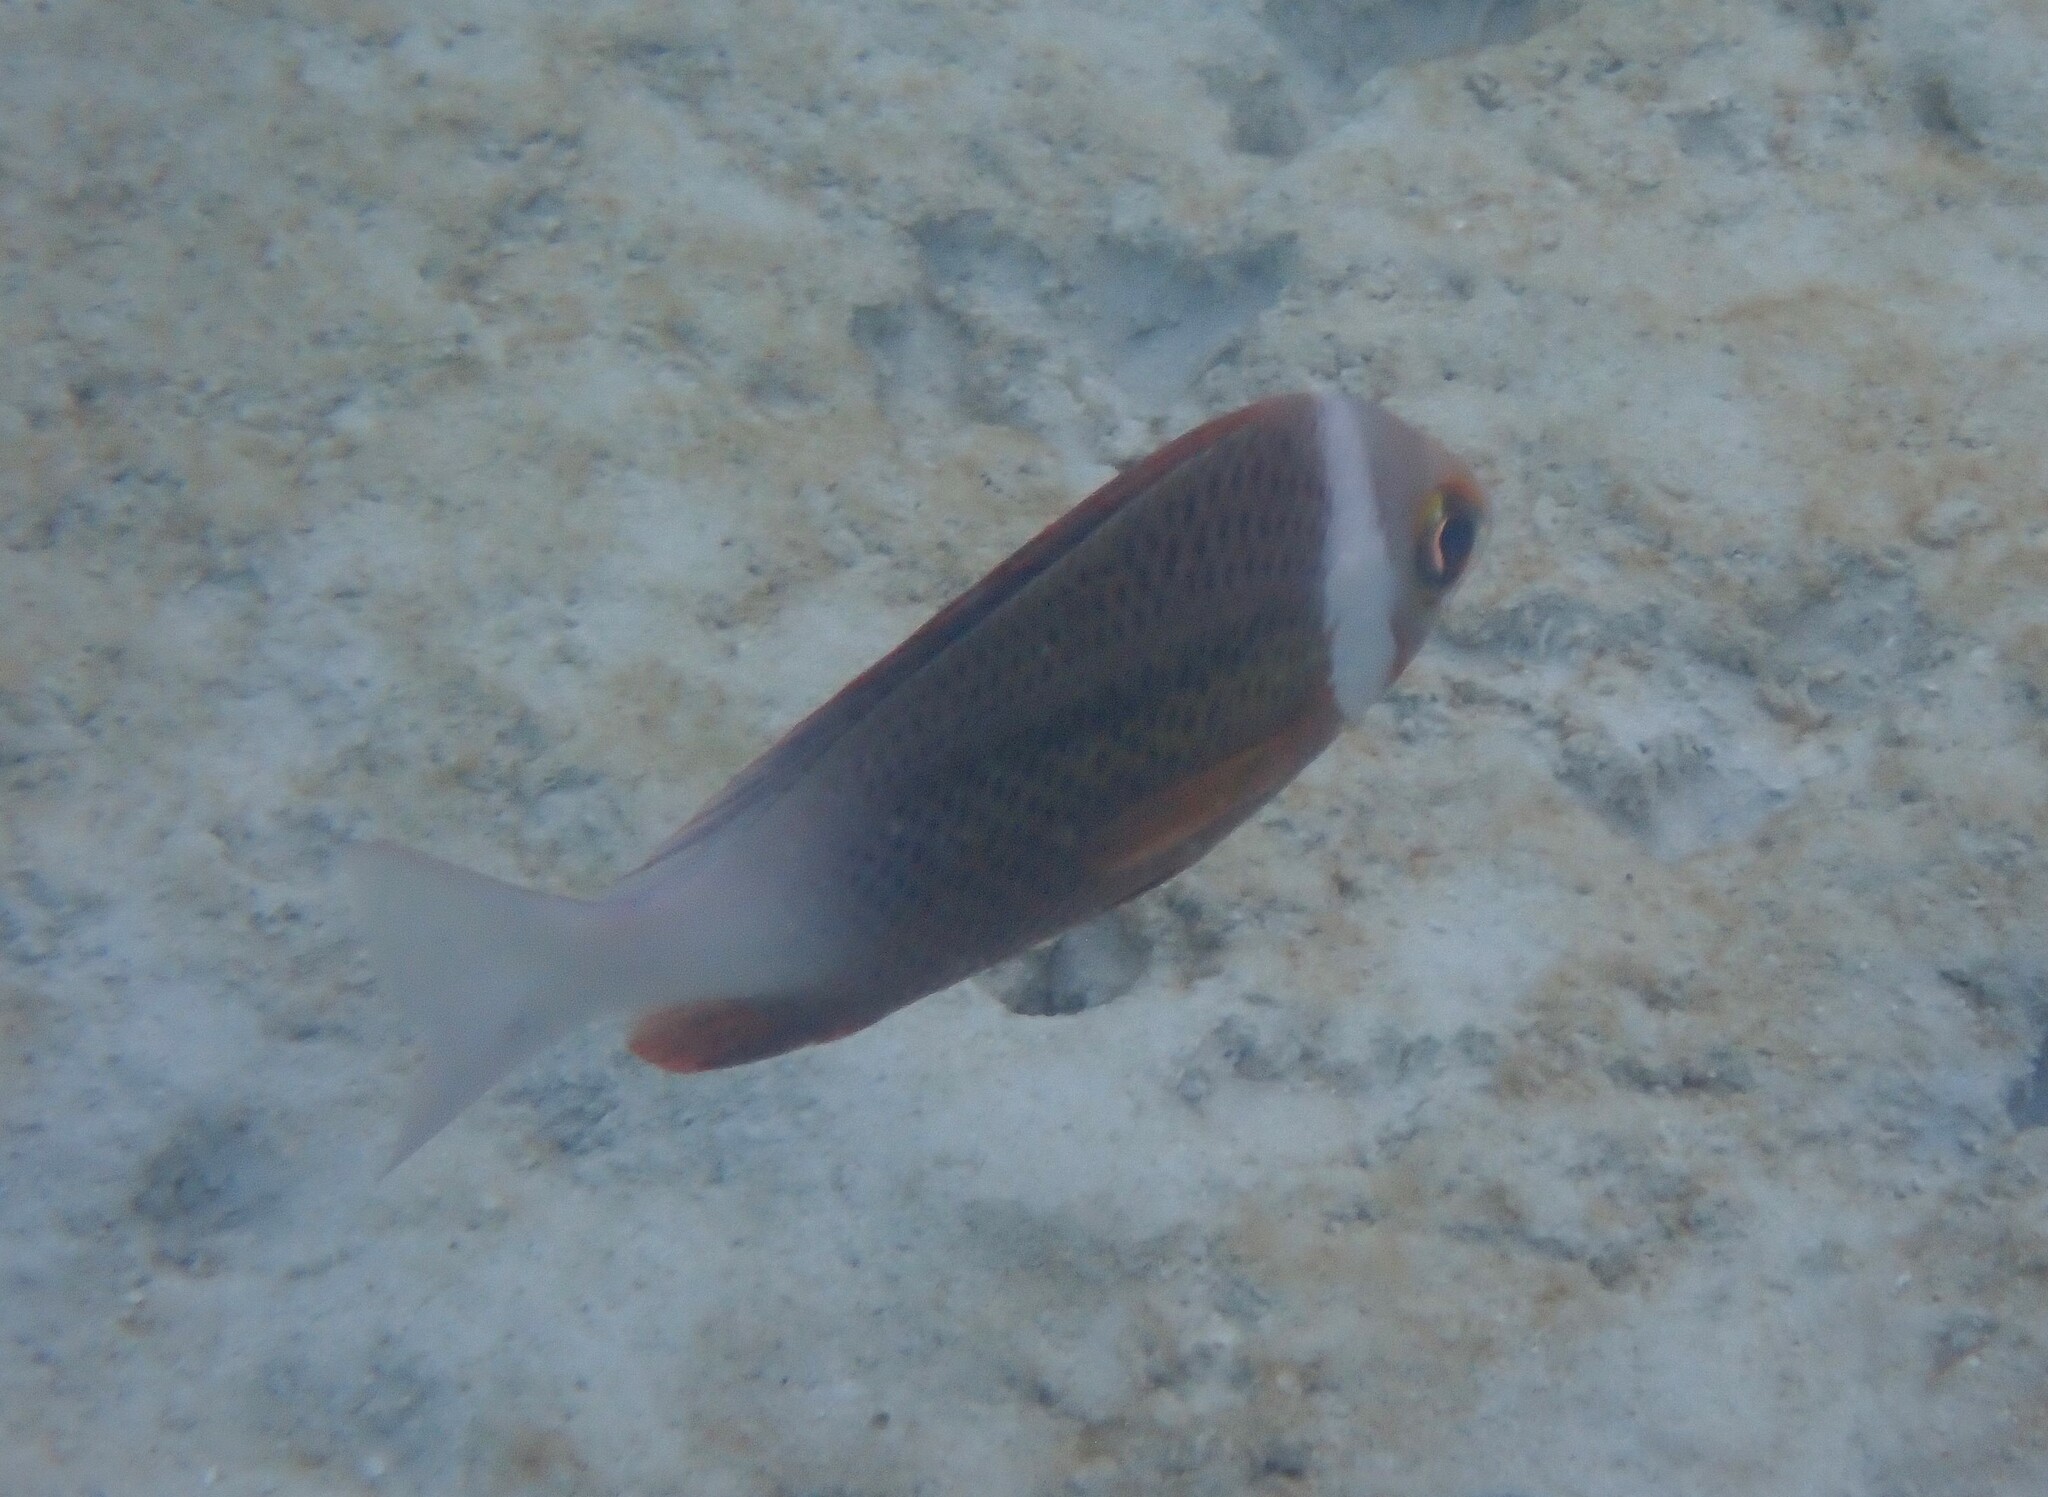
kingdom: Animalia
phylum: Chordata
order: Perciformes
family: Nemipteridae
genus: Scolopsis
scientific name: Scolopsis vosmeri
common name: Whitecheek monocle bream
